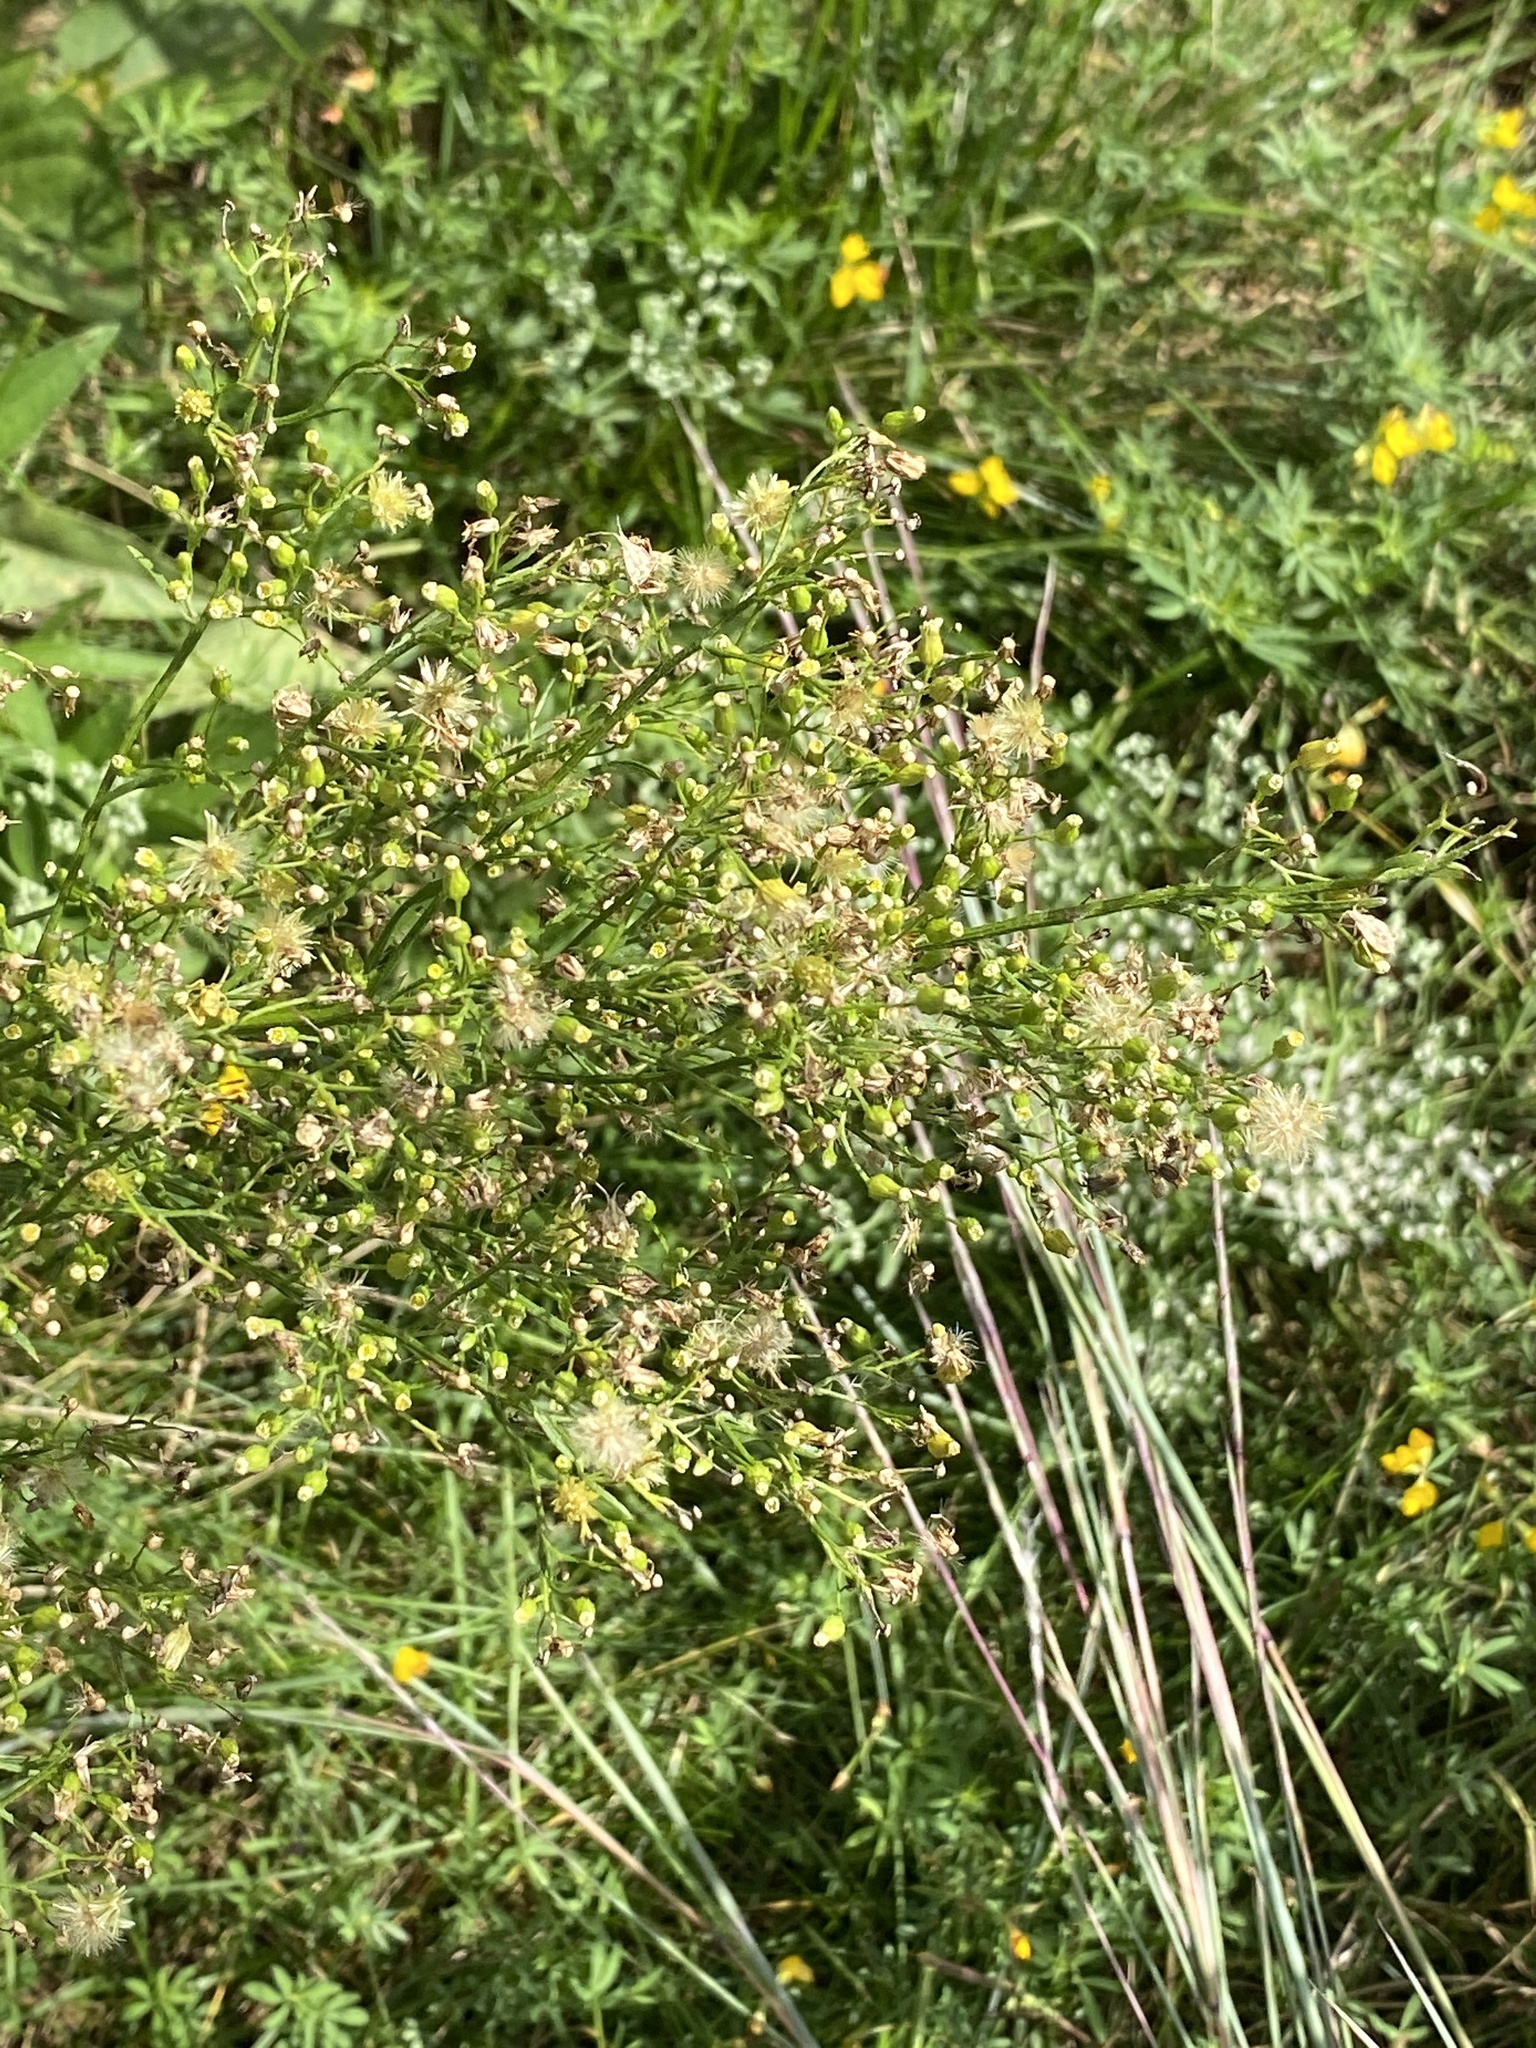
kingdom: Plantae
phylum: Tracheophyta
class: Magnoliopsida
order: Asterales
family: Asteraceae
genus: Erigeron
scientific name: Erigeron canadensis
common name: Canadian fleabane
